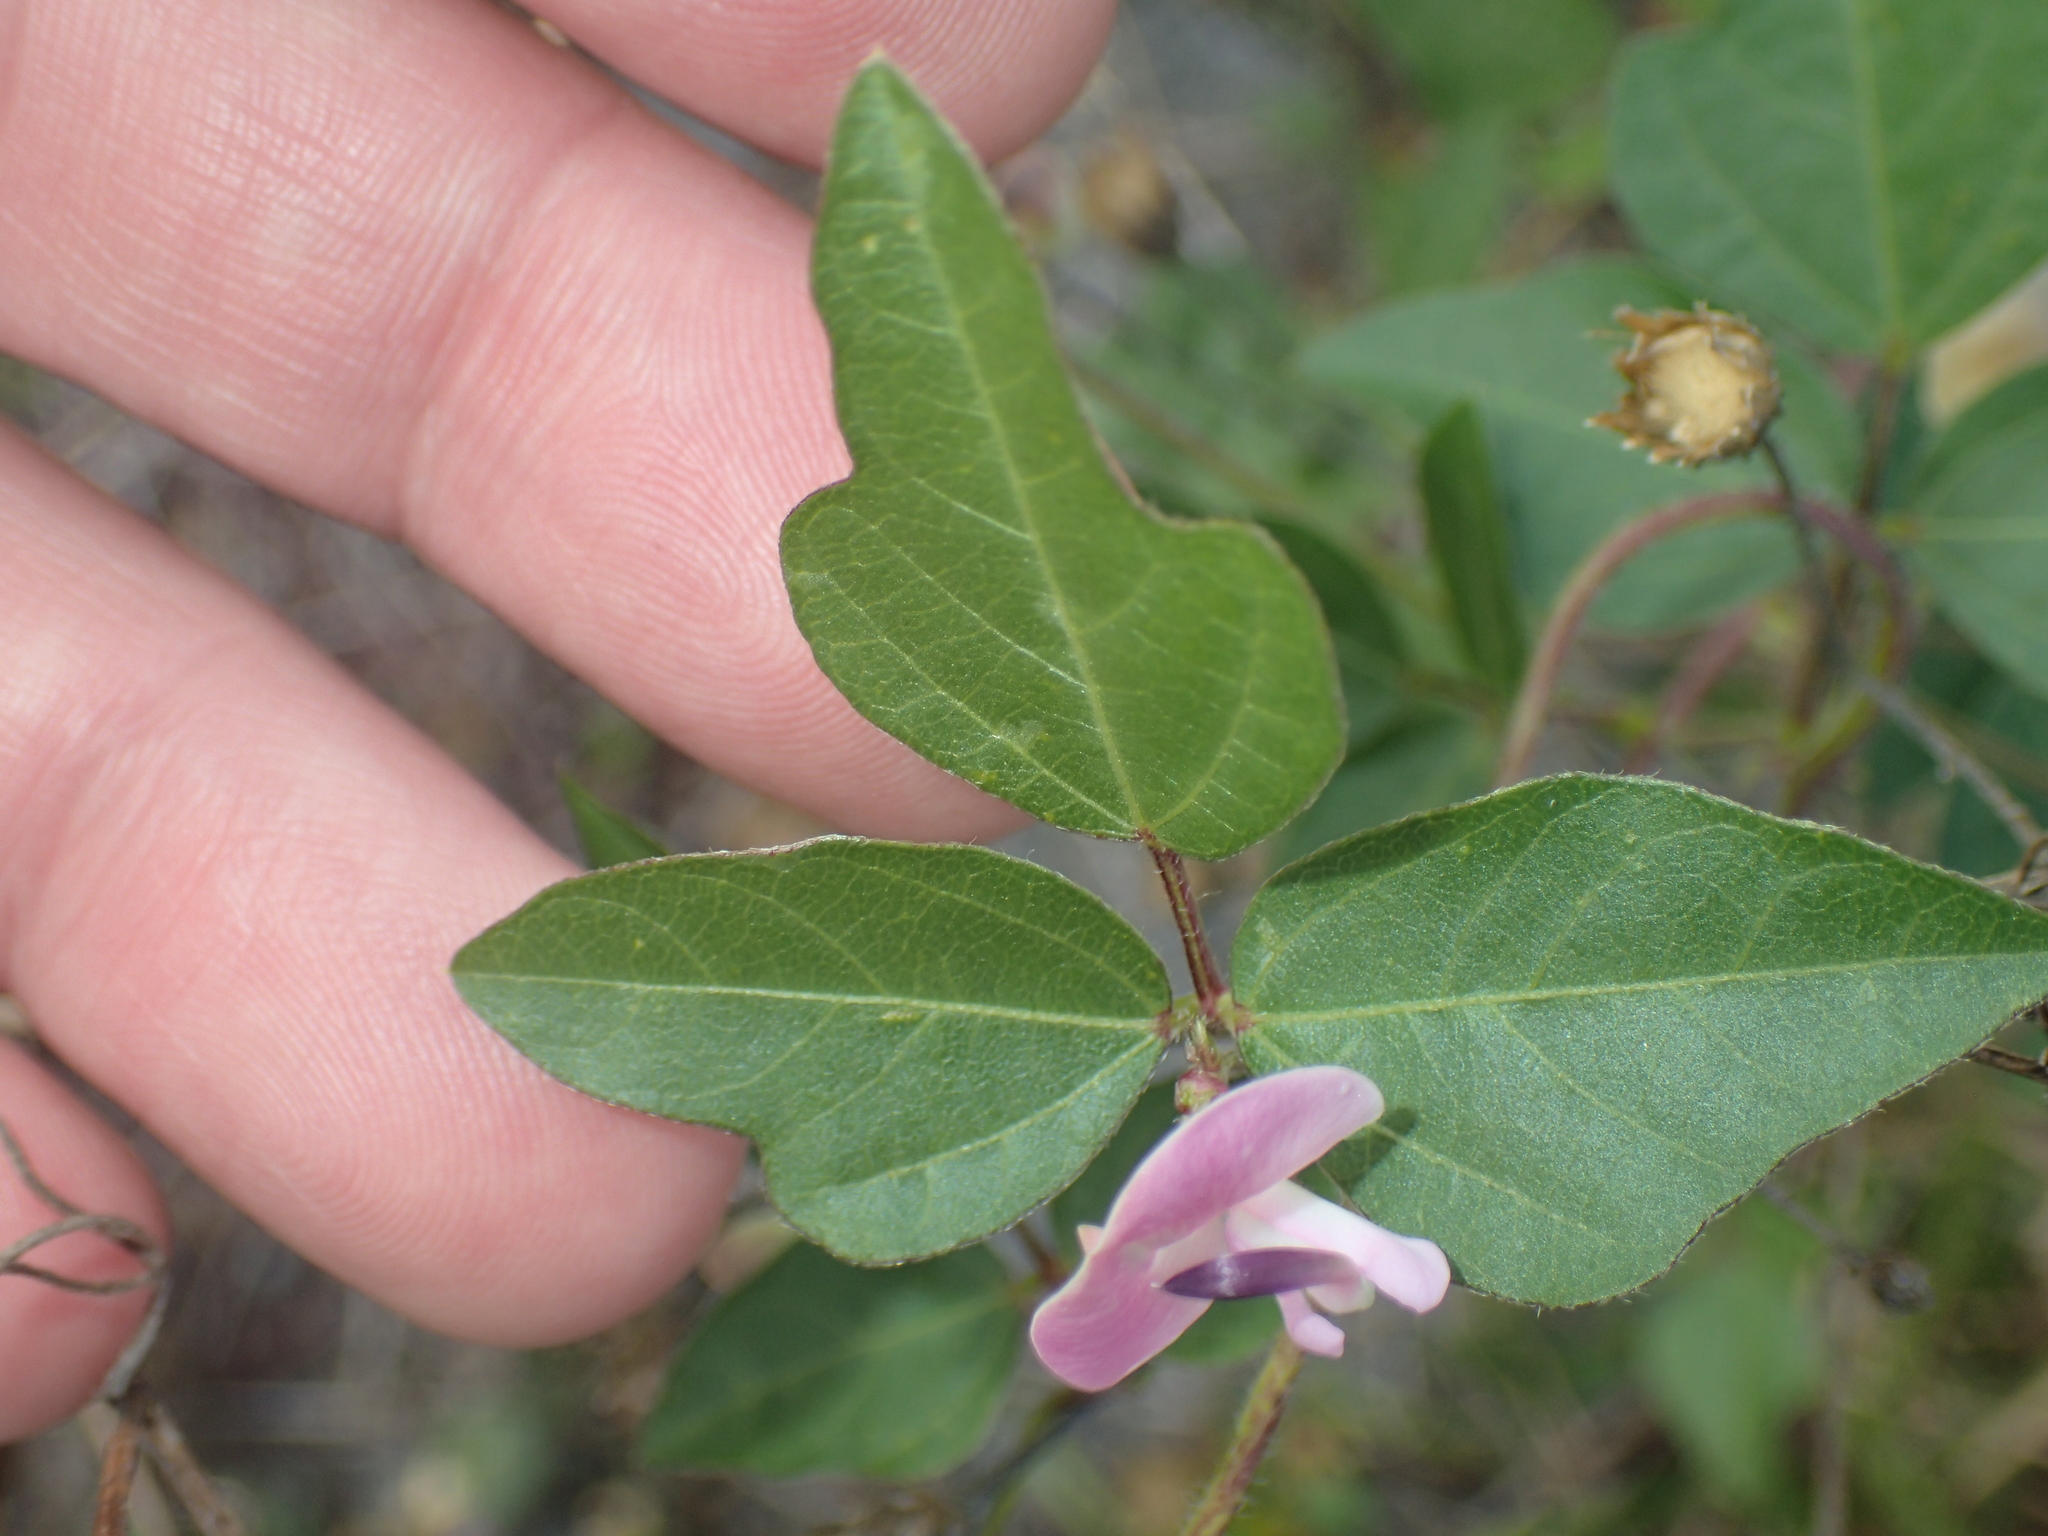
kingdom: Plantae
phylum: Tracheophyta
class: Magnoliopsida
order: Fabales
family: Fabaceae
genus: Strophostyles
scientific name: Strophostyles helvola
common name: Trailing wild bean
